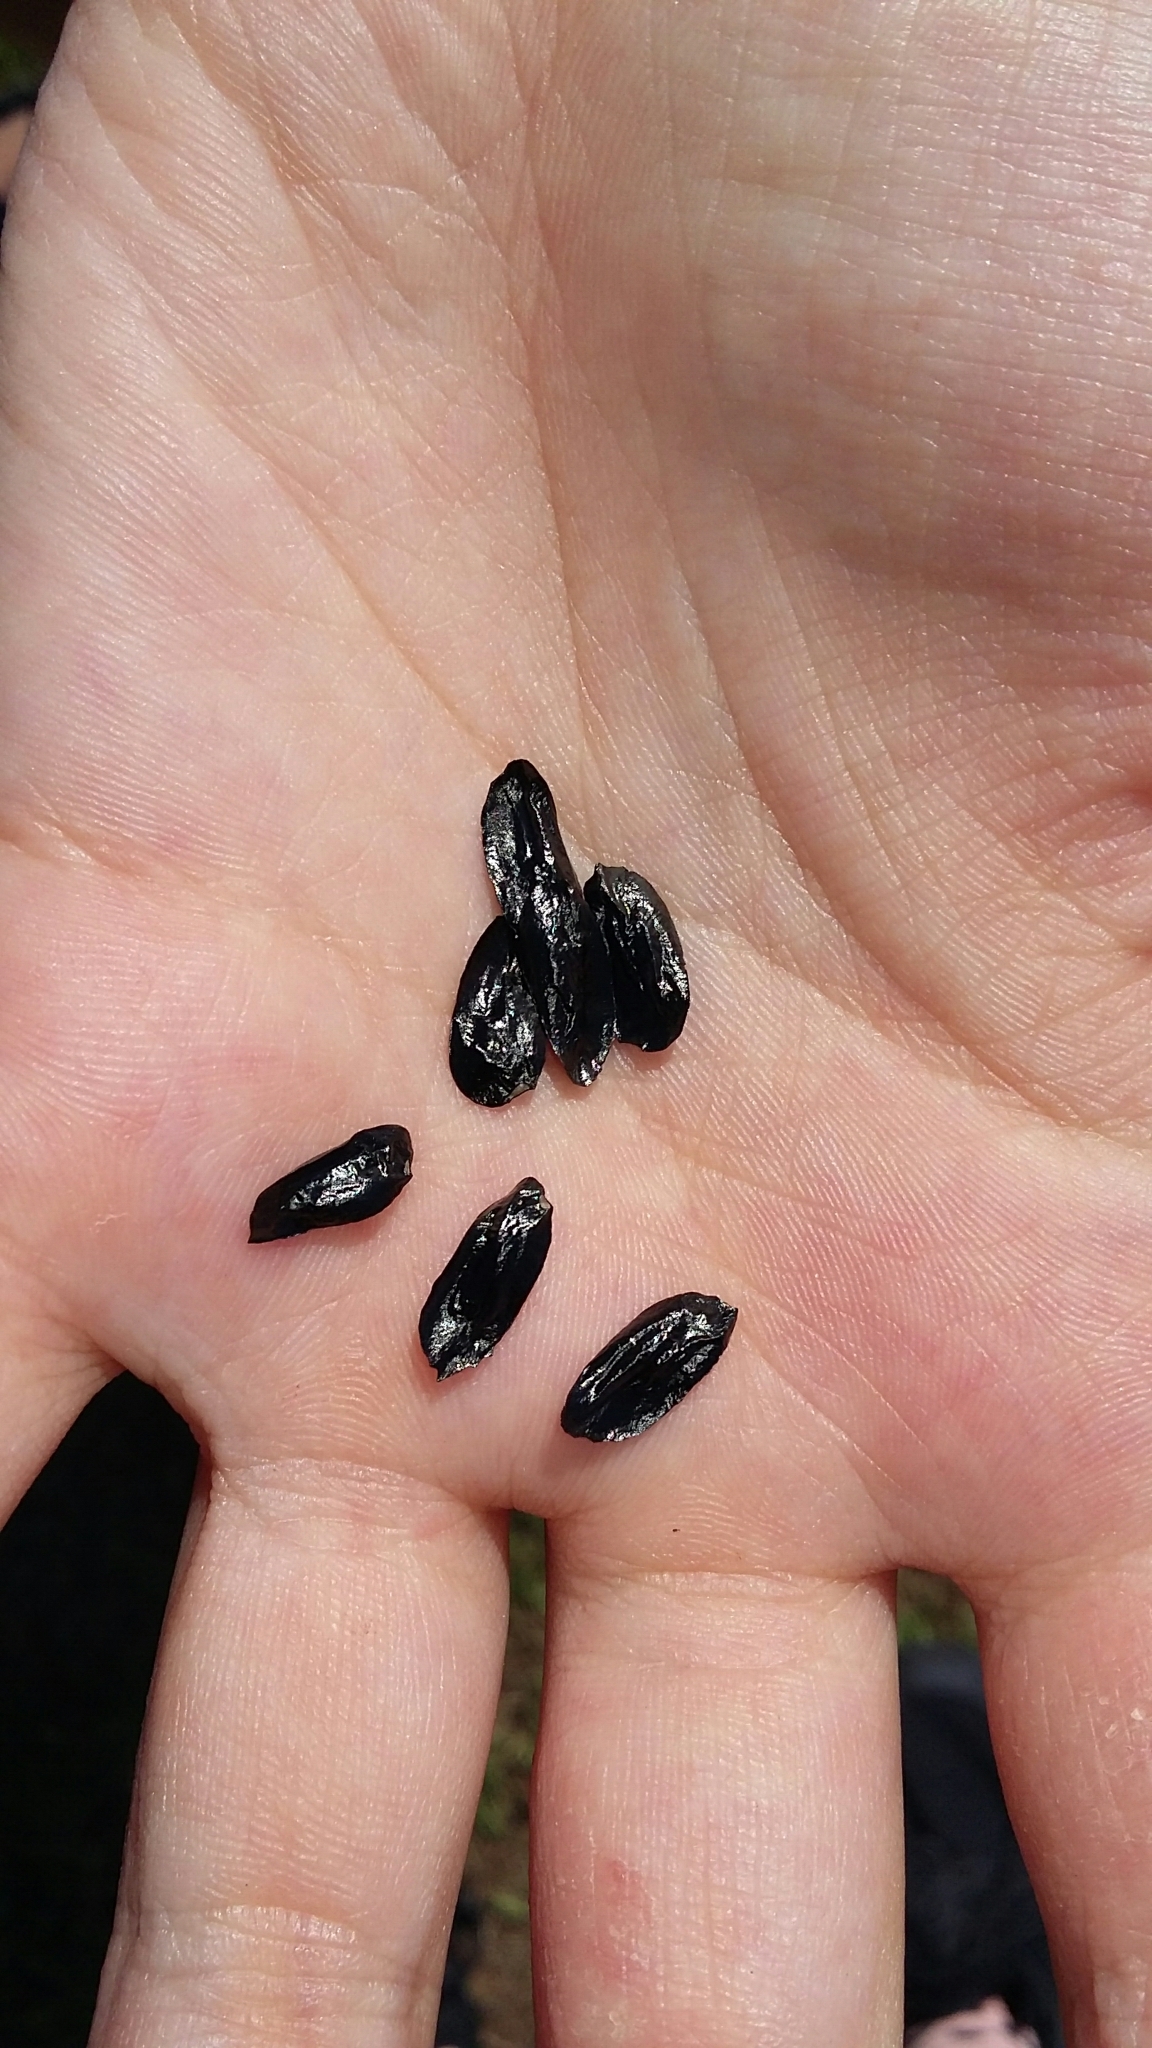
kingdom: Plantae
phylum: Tracheophyta
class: Liliopsida
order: Asparagales
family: Asphodelaceae
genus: Phormium
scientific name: Phormium tenax
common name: New zealand flax
